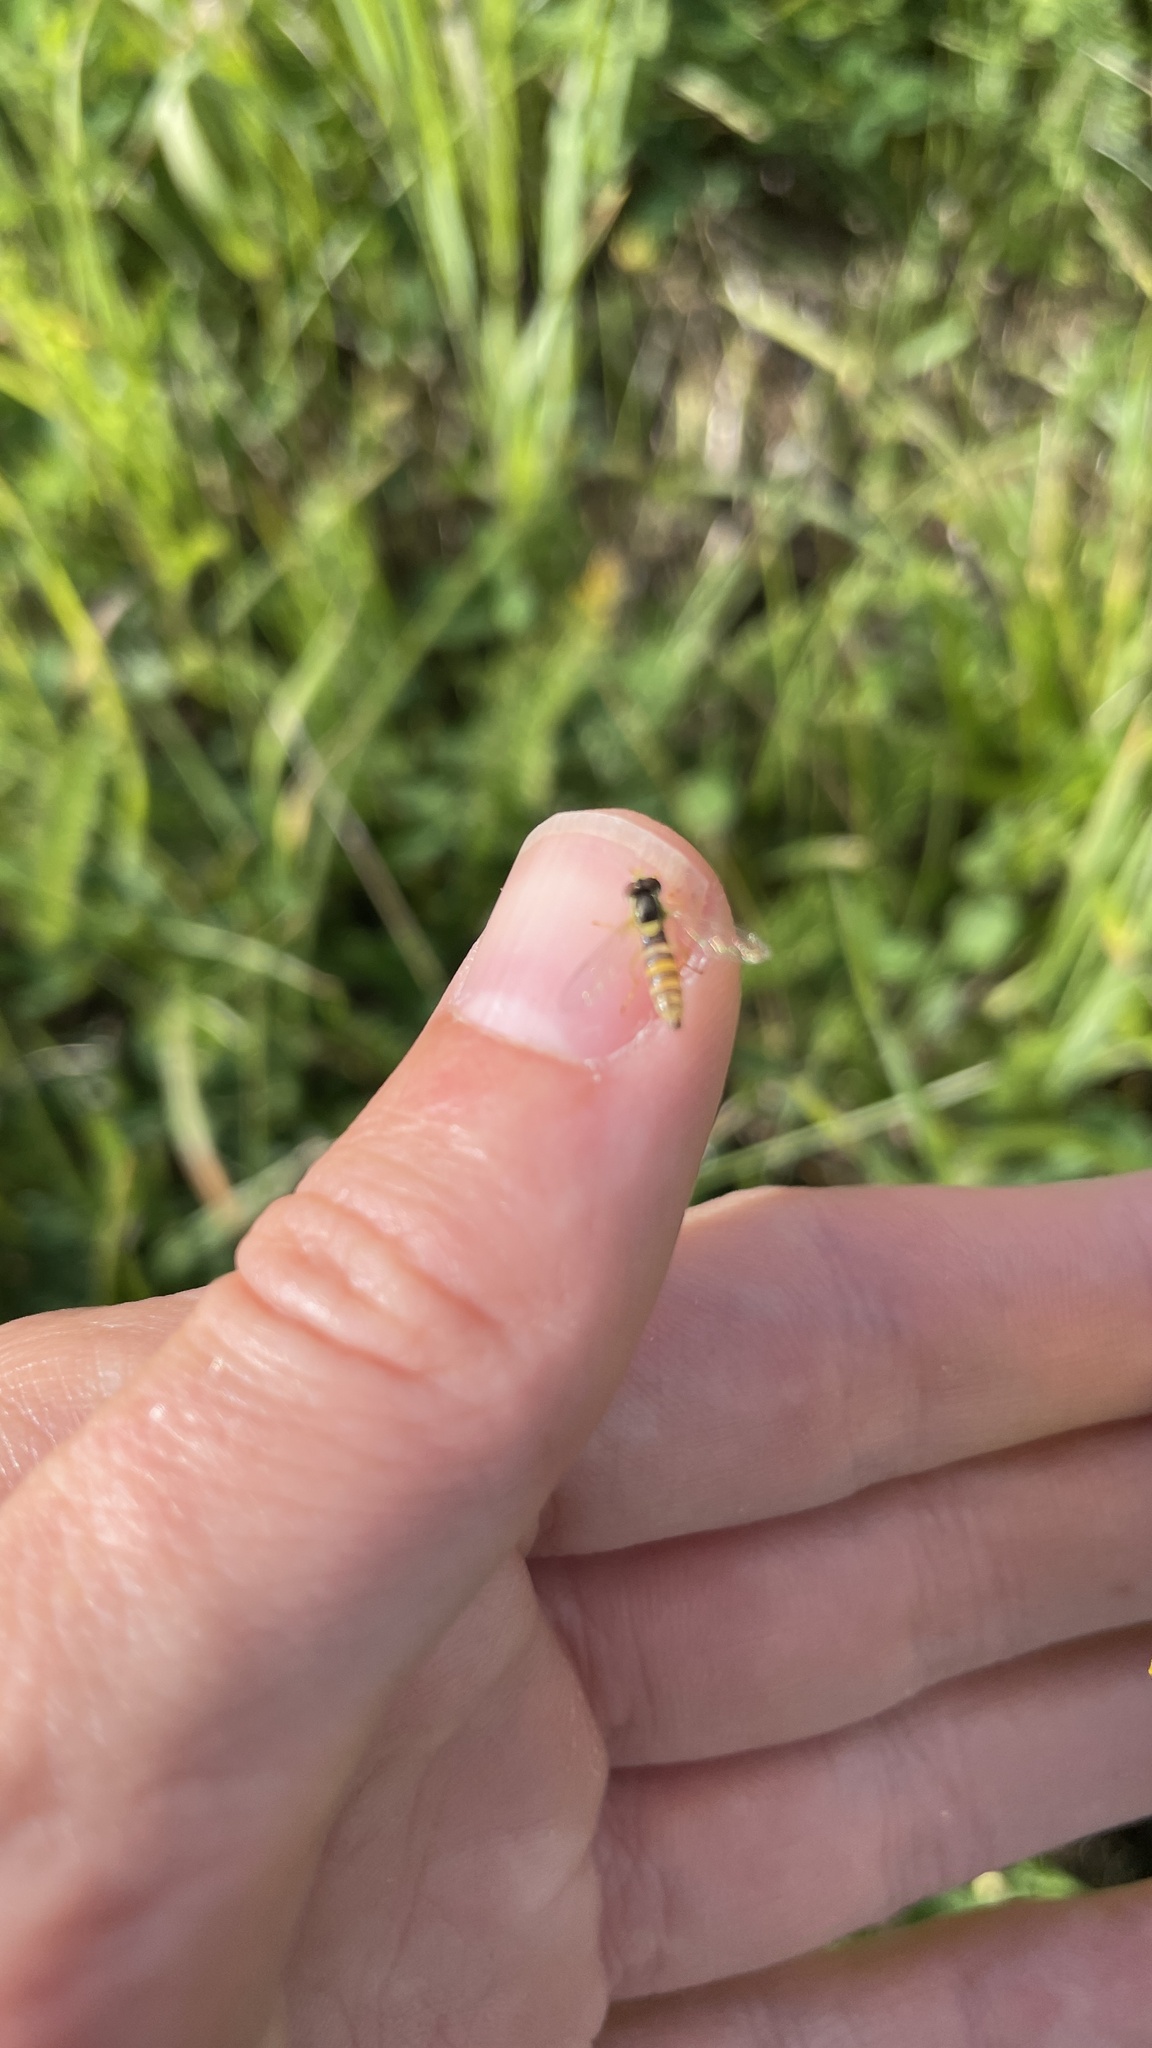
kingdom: Animalia
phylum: Arthropoda
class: Insecta
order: Diptera
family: Syrphidae
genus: Sphaerophoria
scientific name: Sphaerophoria
